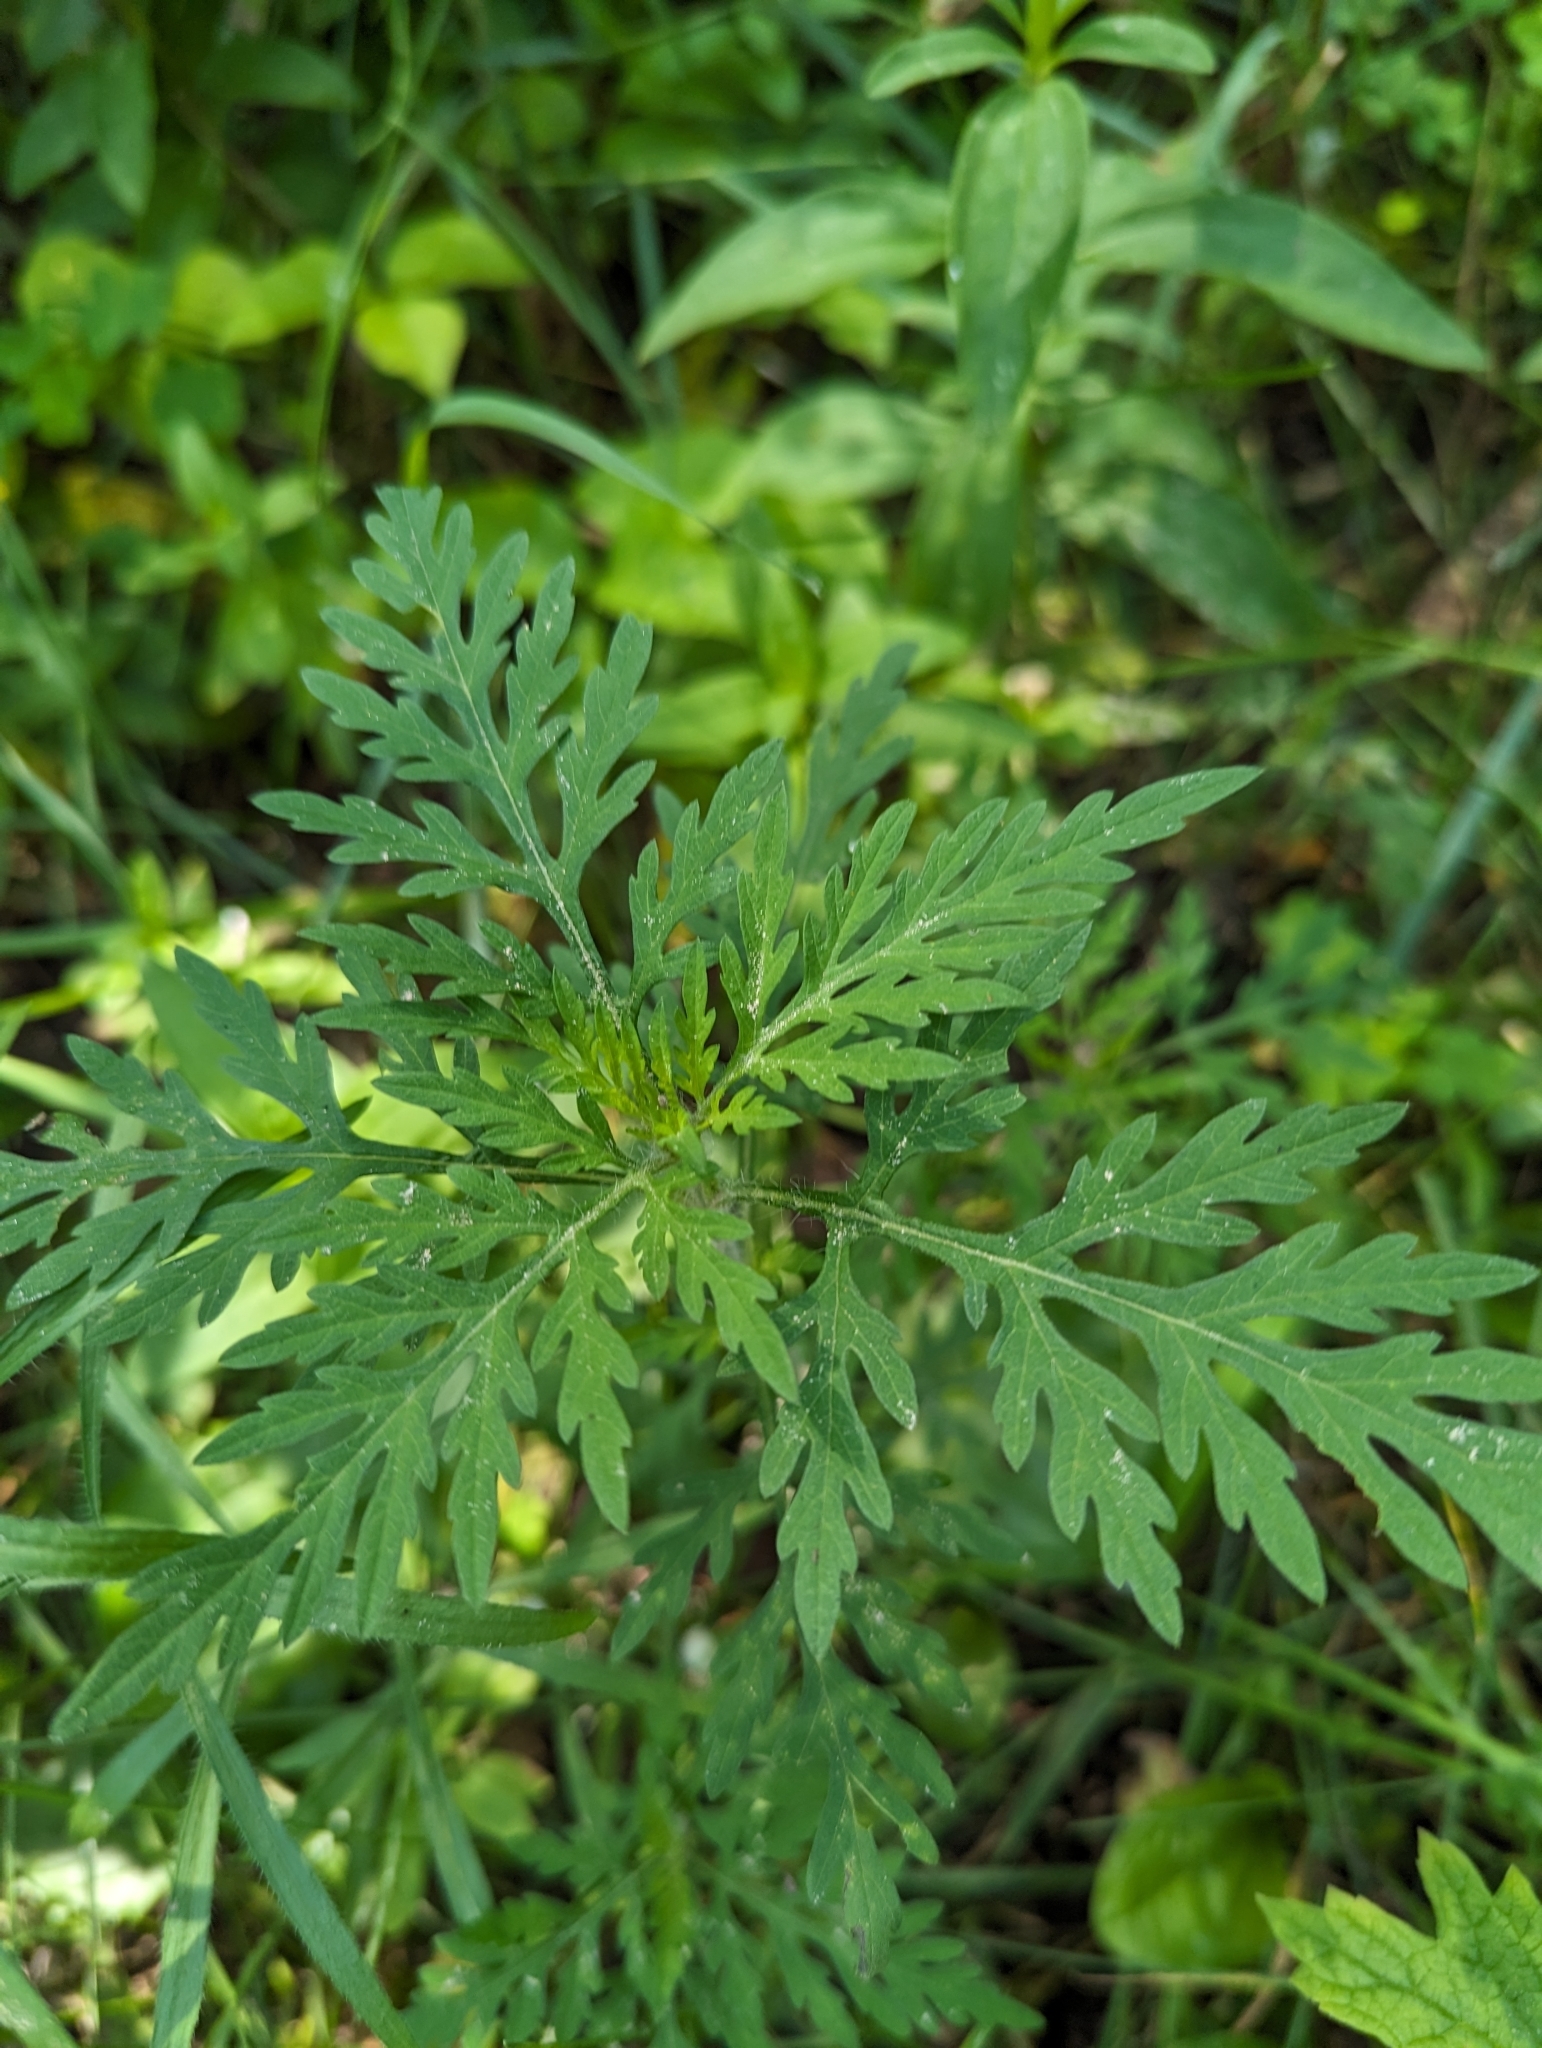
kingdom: Plantae
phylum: Tracheophyta
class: Magnoliopsida
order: Asterales
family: Asteraceae
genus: Ambrosia
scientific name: Ambrosia artemisiifolia
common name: Annual ragweed
